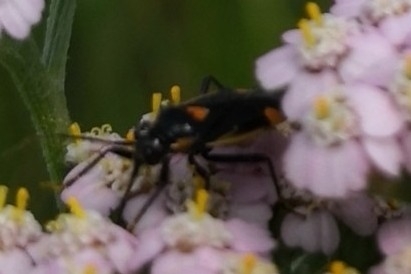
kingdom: Animalia
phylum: Arthropoda
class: Insecta
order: Hemiptera
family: Miridae
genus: Capsodes
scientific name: Capsodes gothicus
